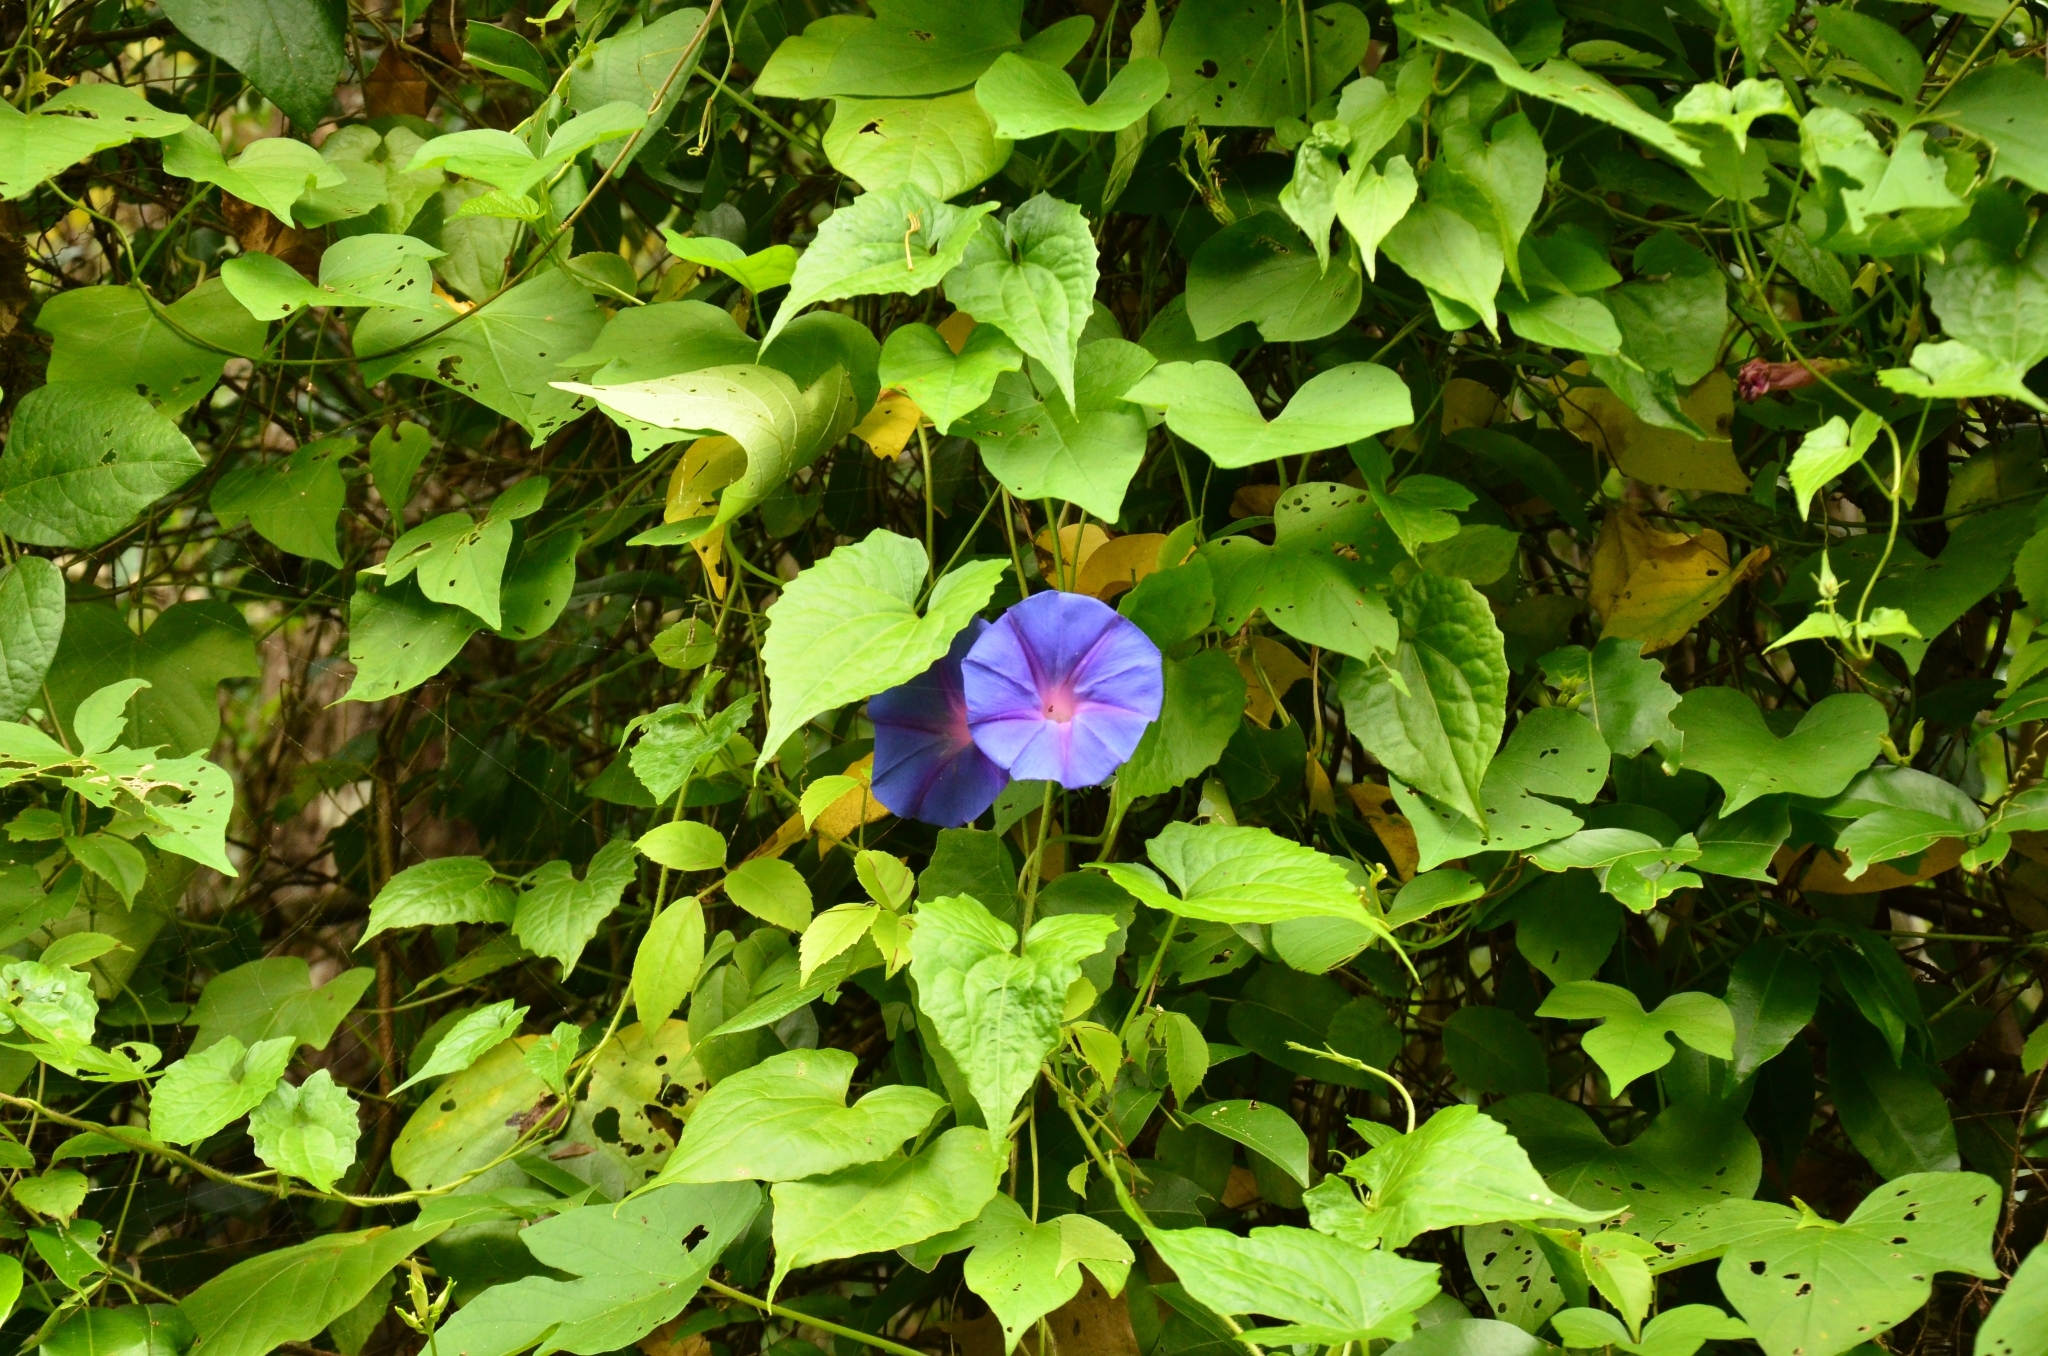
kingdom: Plantae
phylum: Tracheophyta
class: Magnoliopsida
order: Solanales
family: Convolvulaceae
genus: Ipomoea
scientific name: Ipomoea indica
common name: Blue dawnflower
